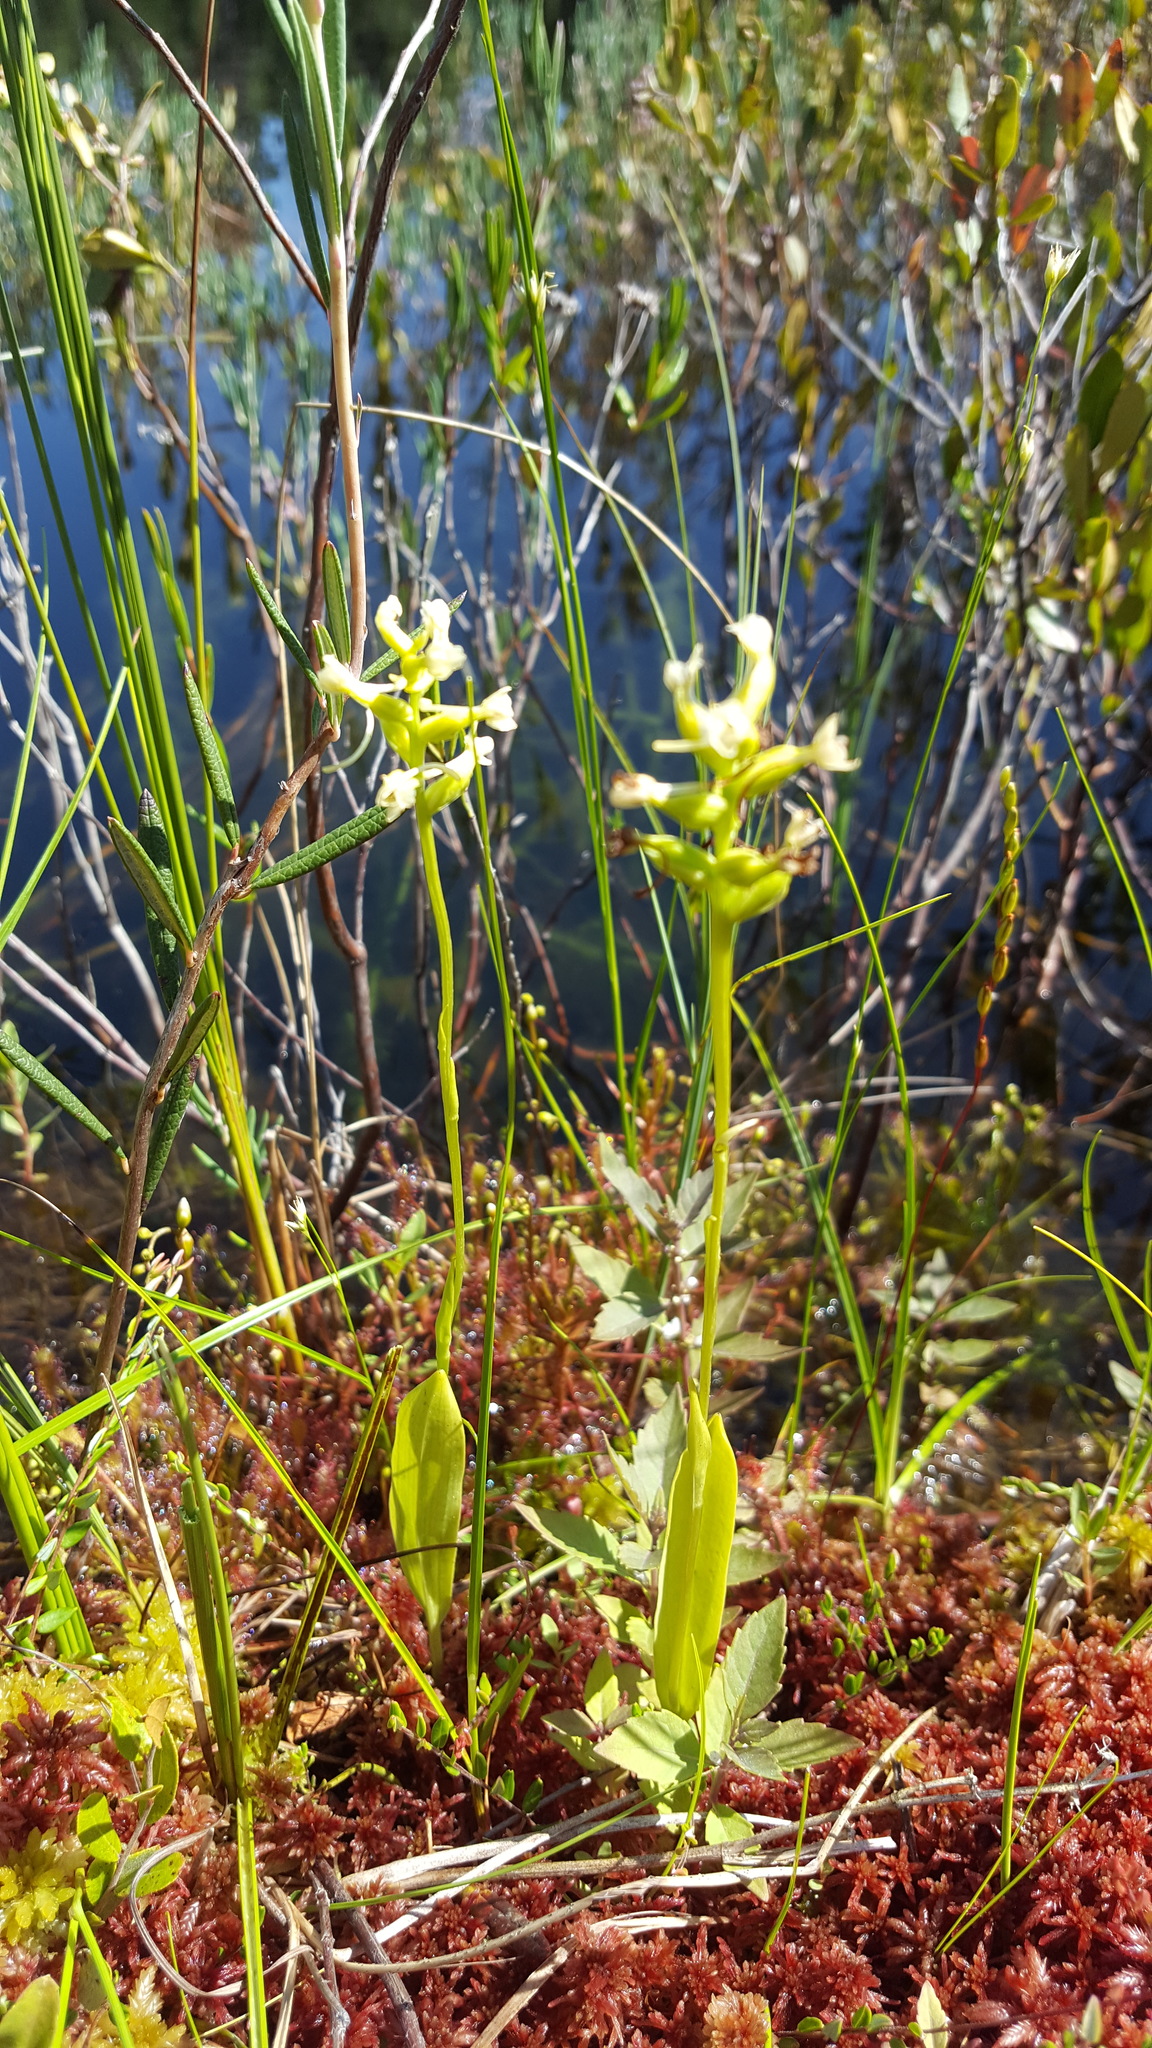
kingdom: Plantae
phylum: Tracheophyta
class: Liliopsida
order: Asparagales
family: Orchidaceae
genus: Platanthera
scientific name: Platanthera clavellata
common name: Club-spur orchid
